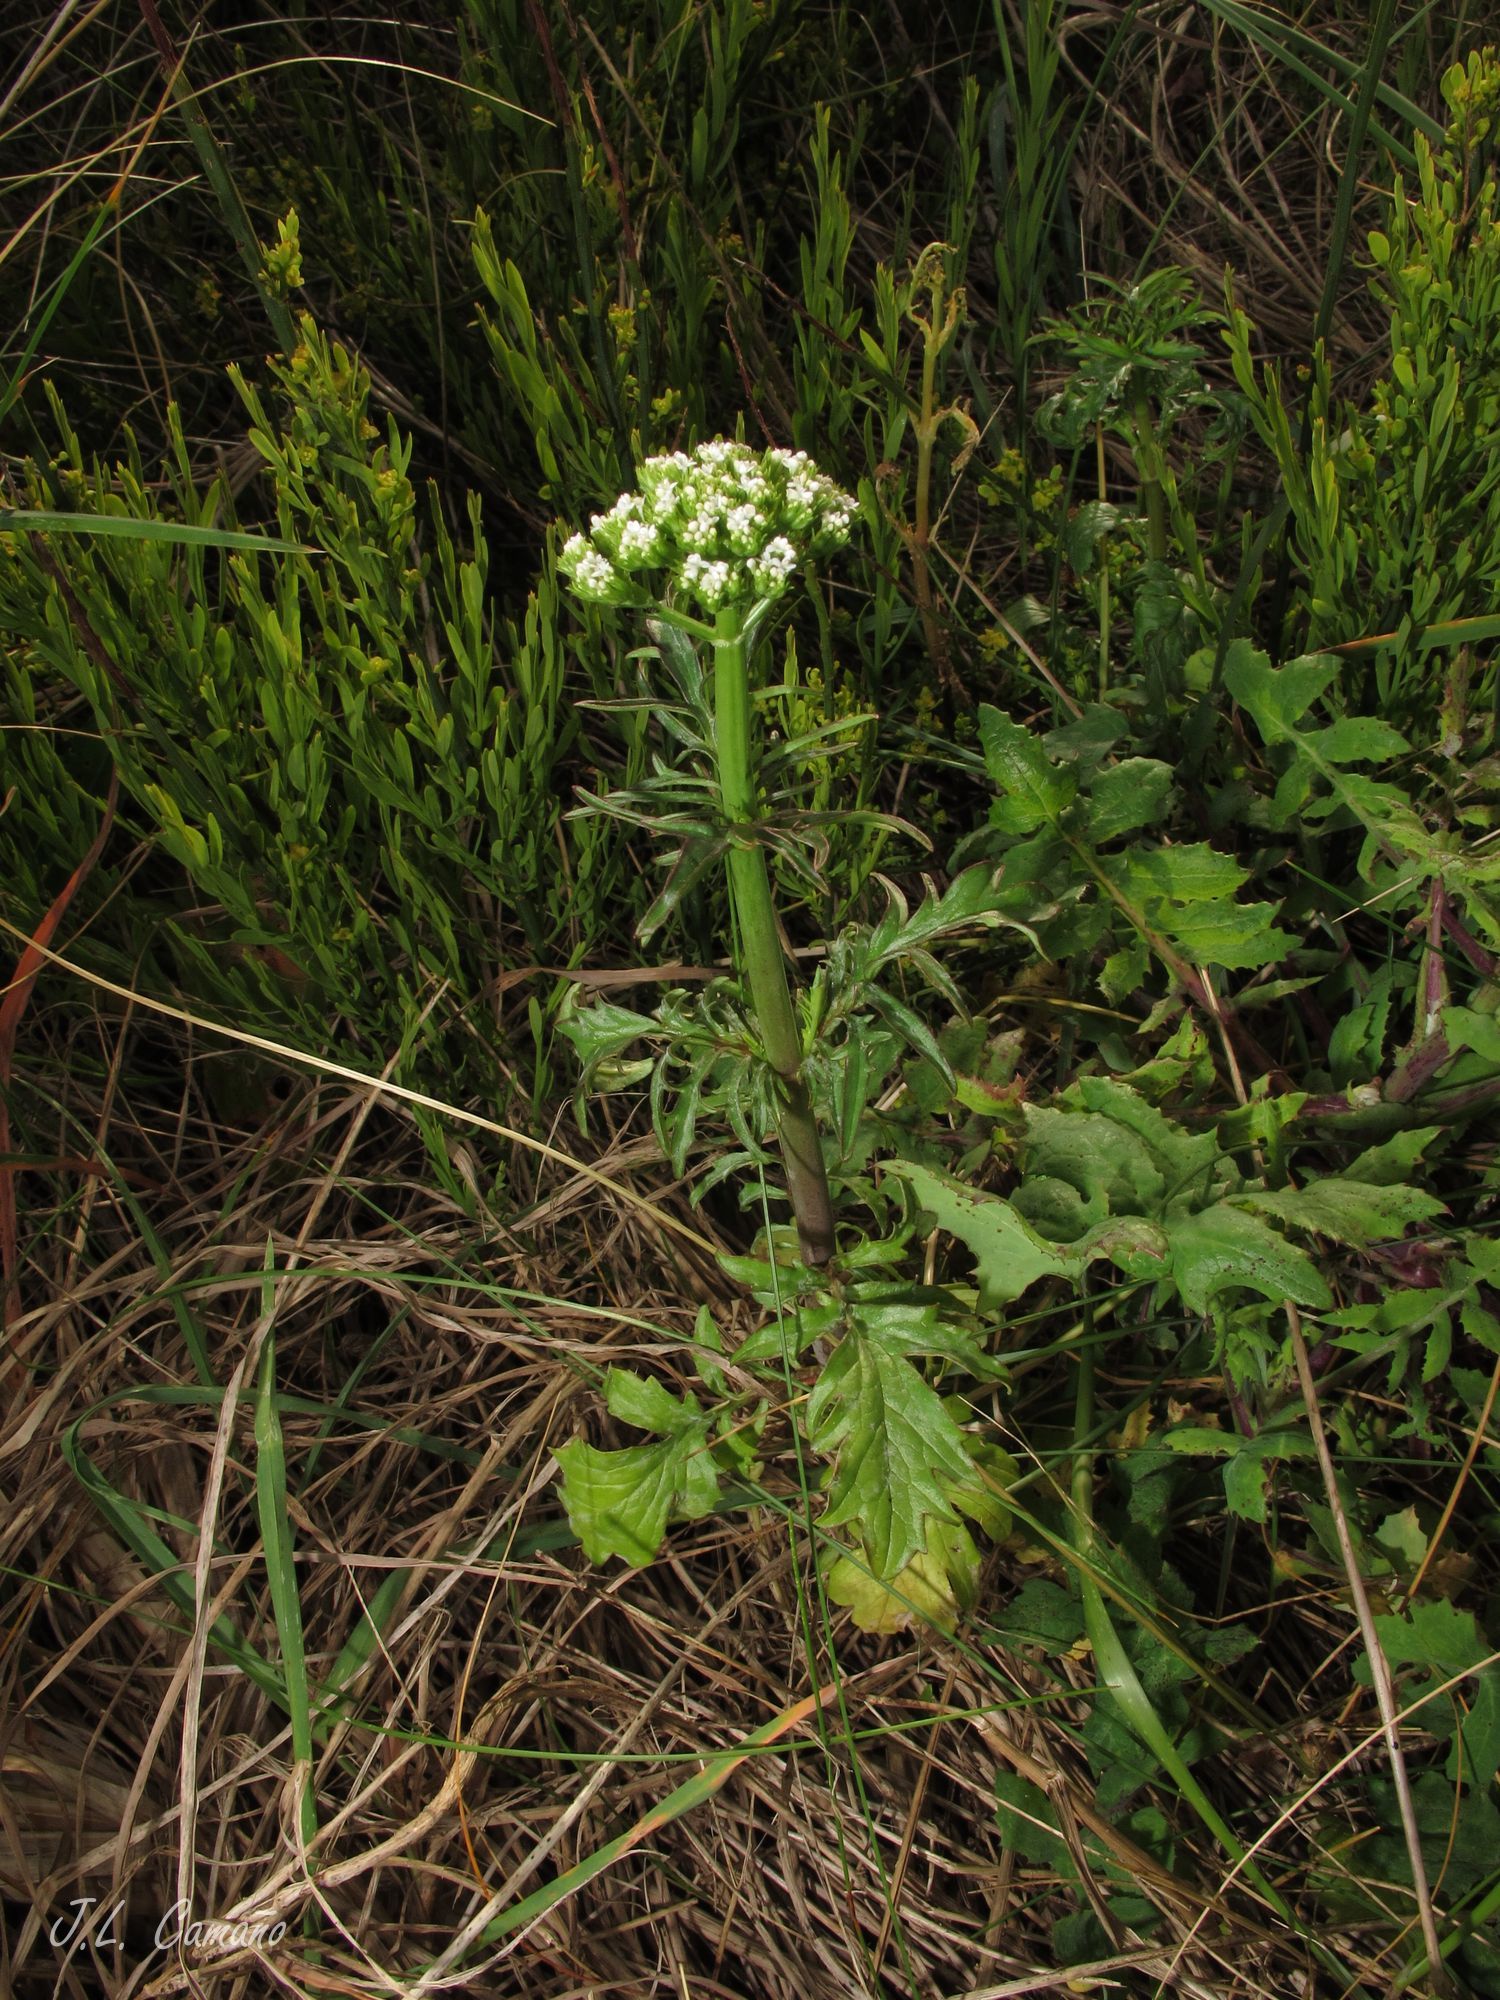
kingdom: Plantae
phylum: Tracheophyta
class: Magnoliopsida
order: Dipsacales
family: Caprifoliaceae
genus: Centranthus
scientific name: Centranthus calcitrapae
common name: Annual valerian
